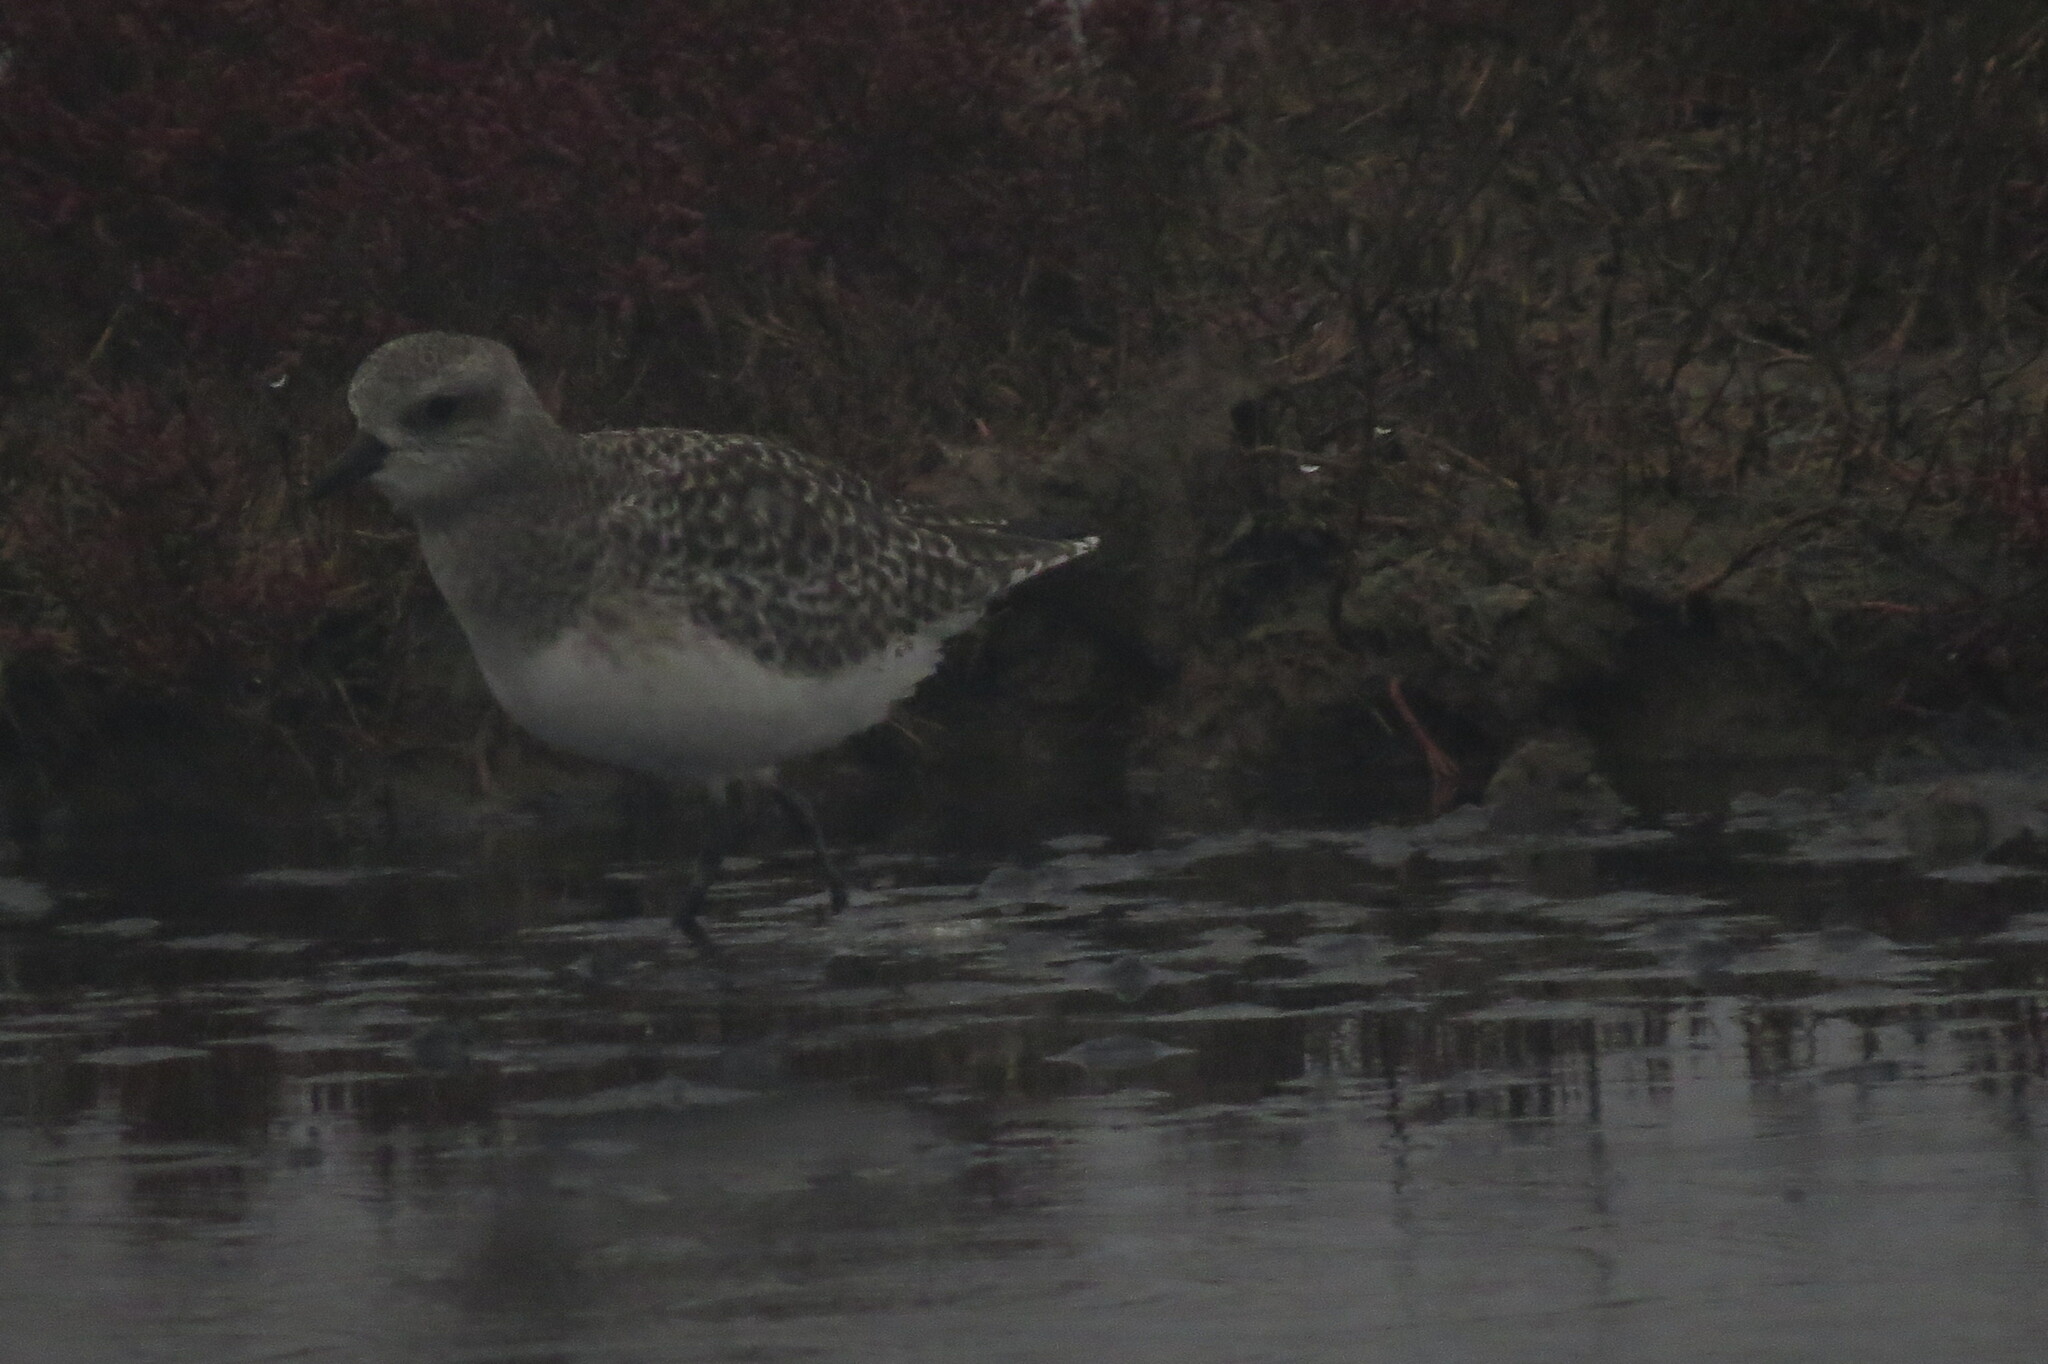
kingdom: Animalia
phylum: Chordata
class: Aves
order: Charadriiformes
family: Charadriidae
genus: Pluvialis
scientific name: Pluvialis squatarola
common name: Grey plover
